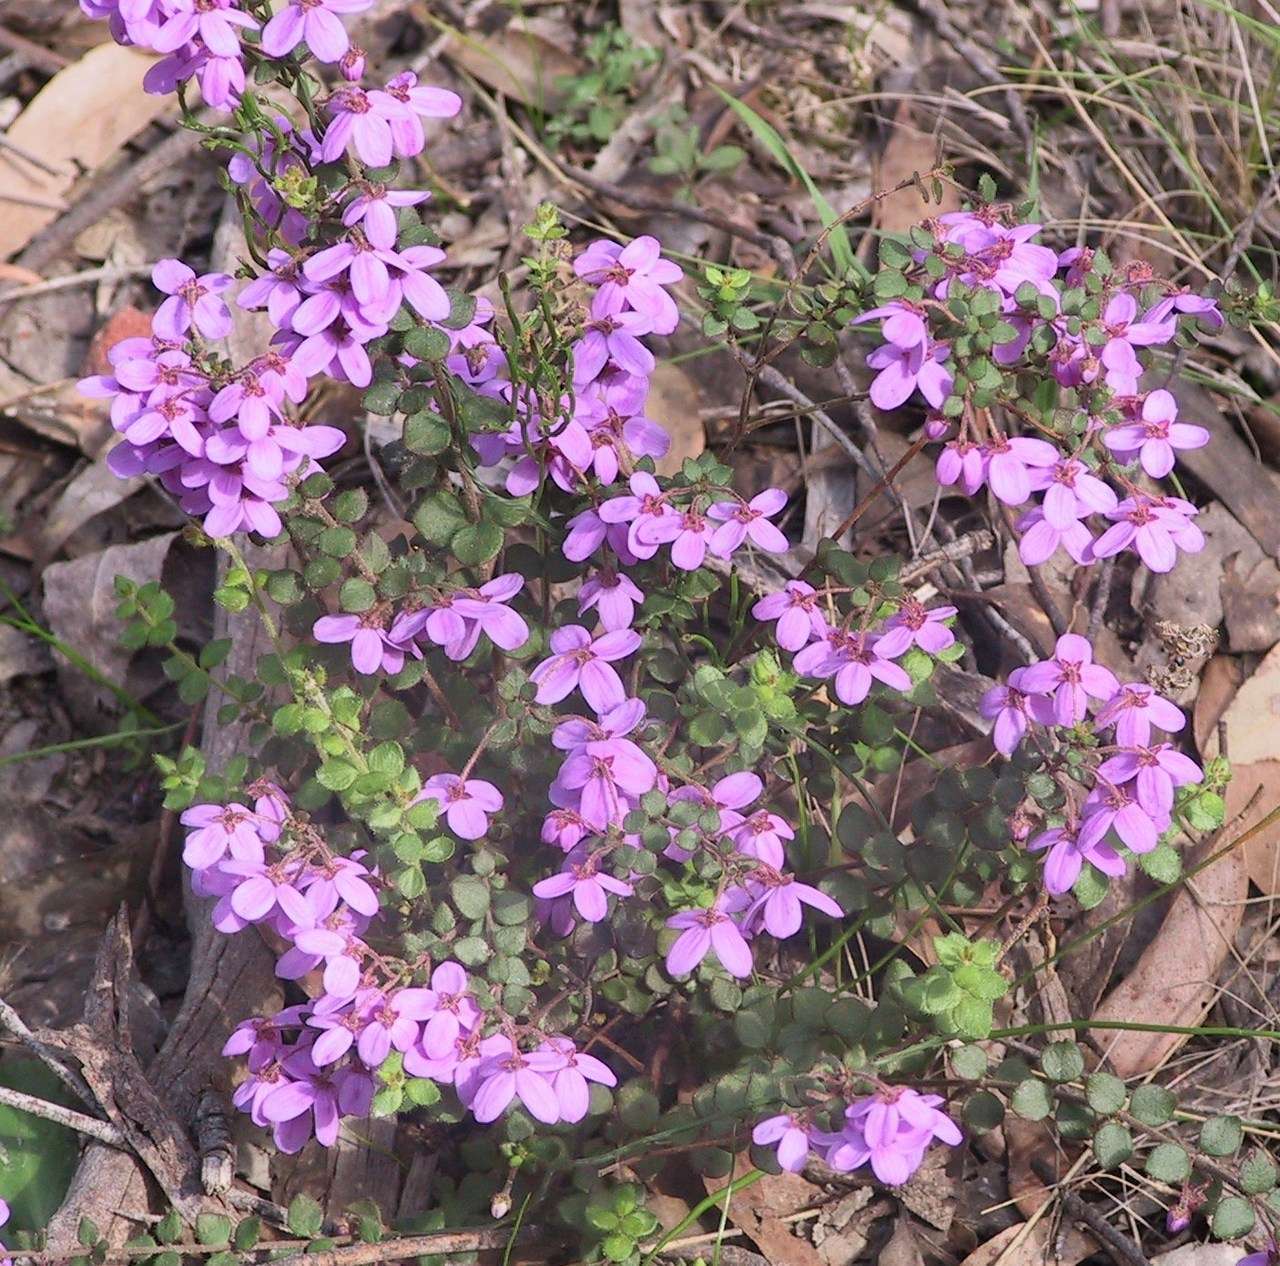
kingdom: Plantae
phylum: Tracheophyta
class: Magnoliopsida
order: Oxalidales
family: Elaeocarpaceae
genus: Tetratheca
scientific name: Tetratheca ciliata
